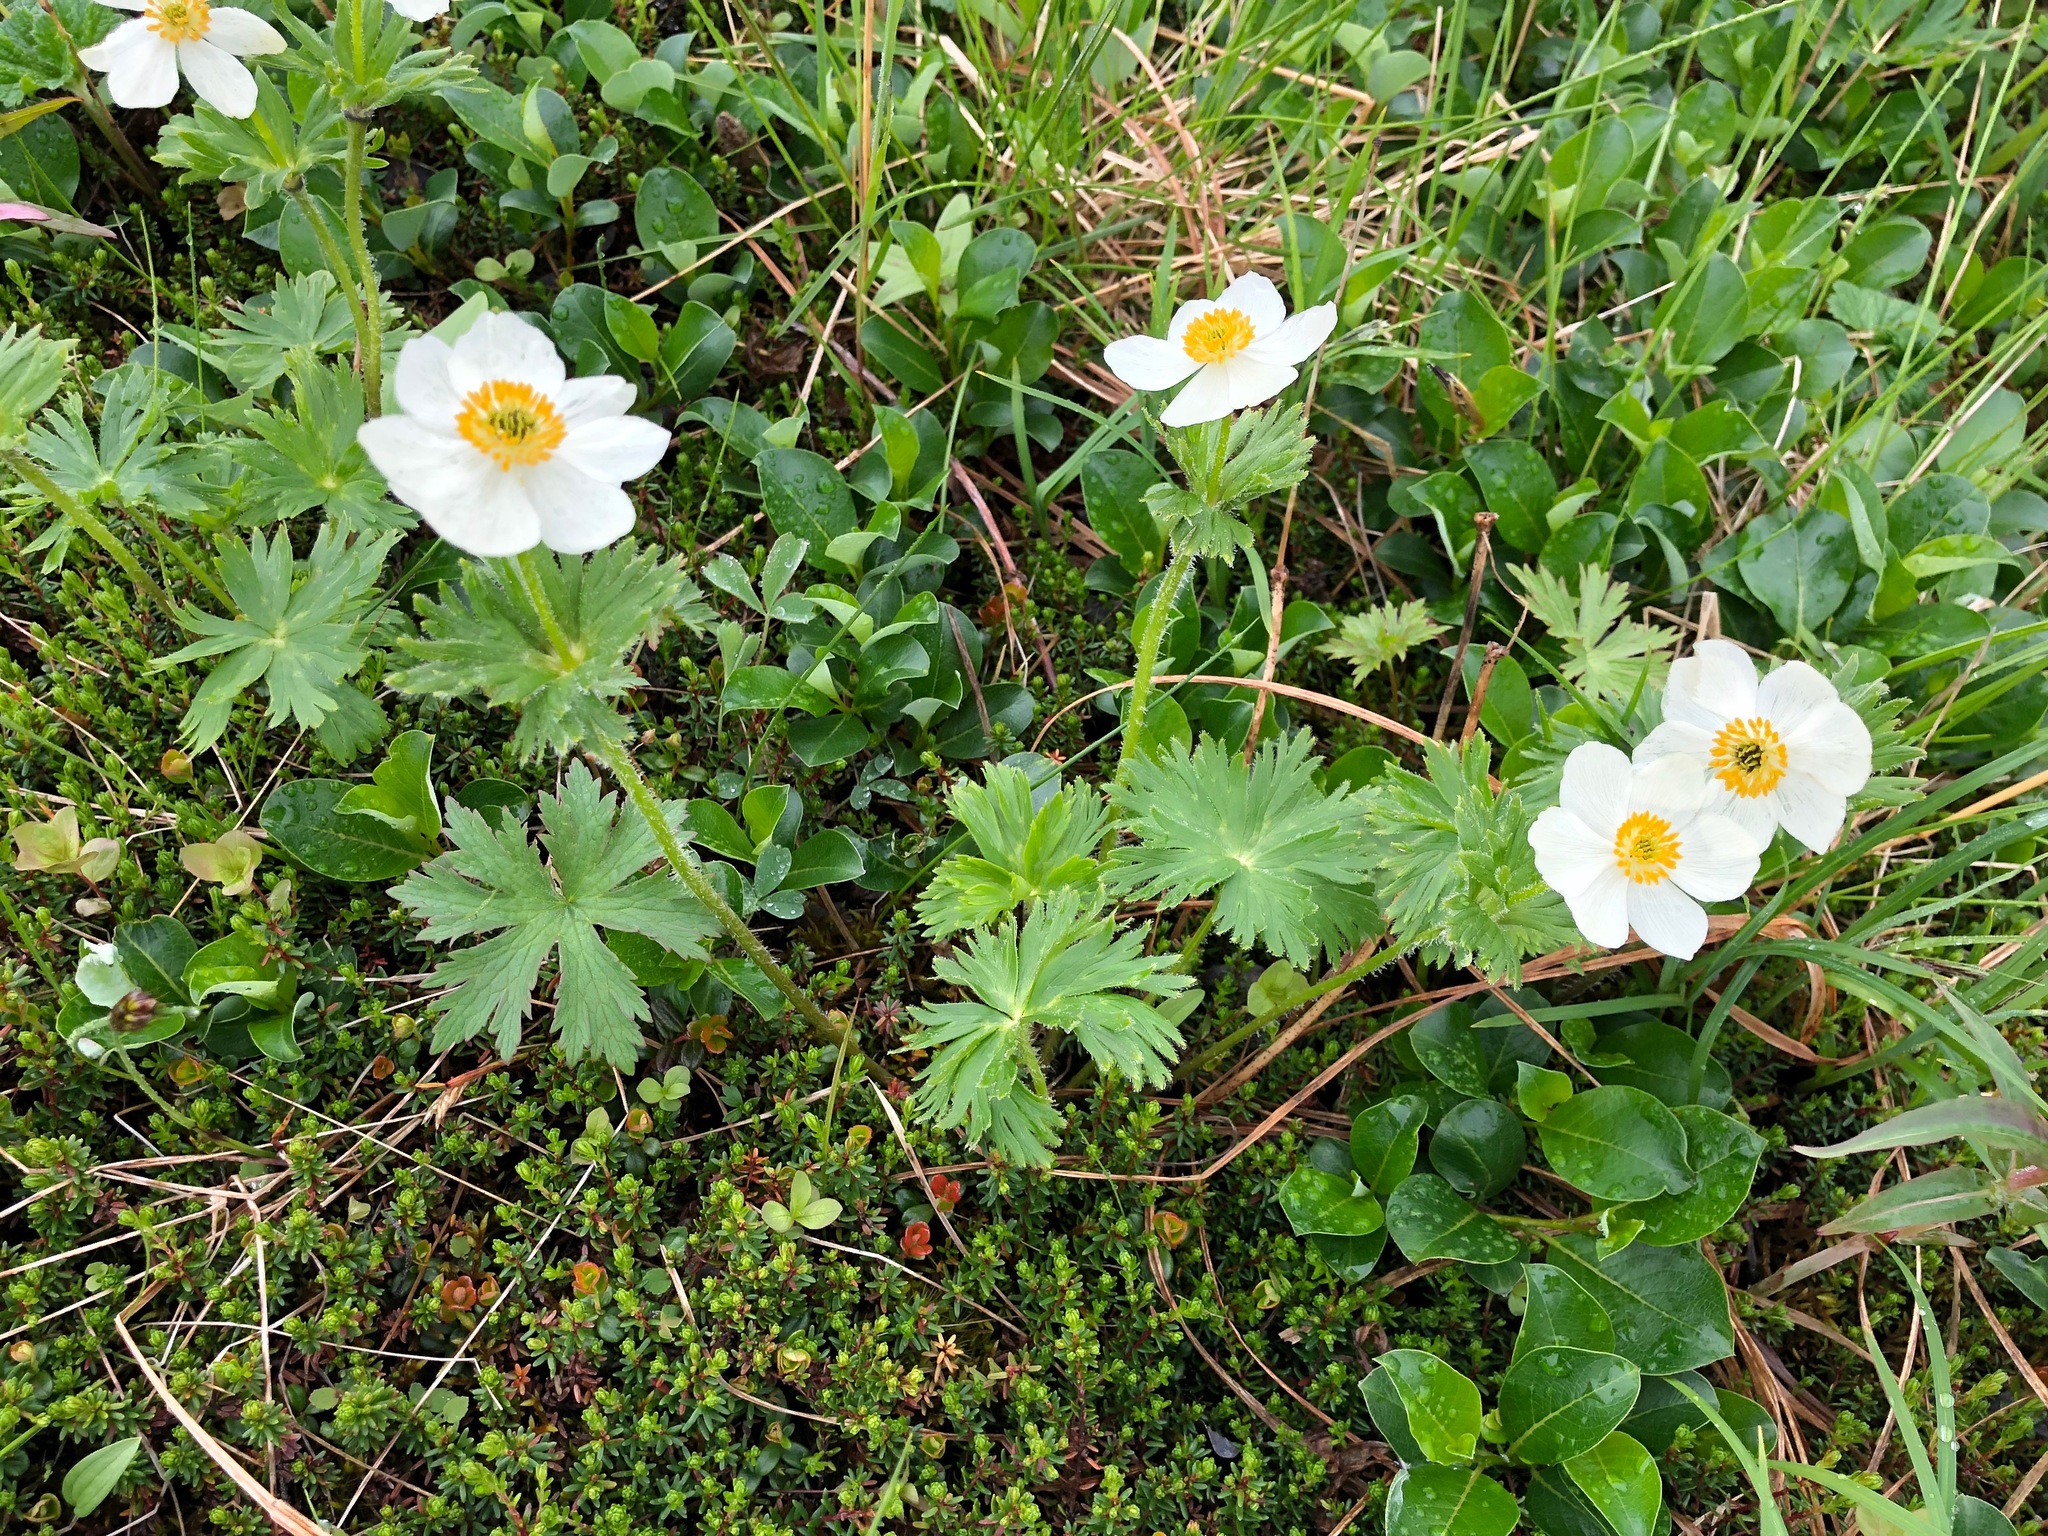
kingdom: Plantae
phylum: Tracheophyta
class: Magnoliopsida
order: Ranunculales
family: Ranunculaceae
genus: Anemonastrum
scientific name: Anemonastrum narcissiflorum
